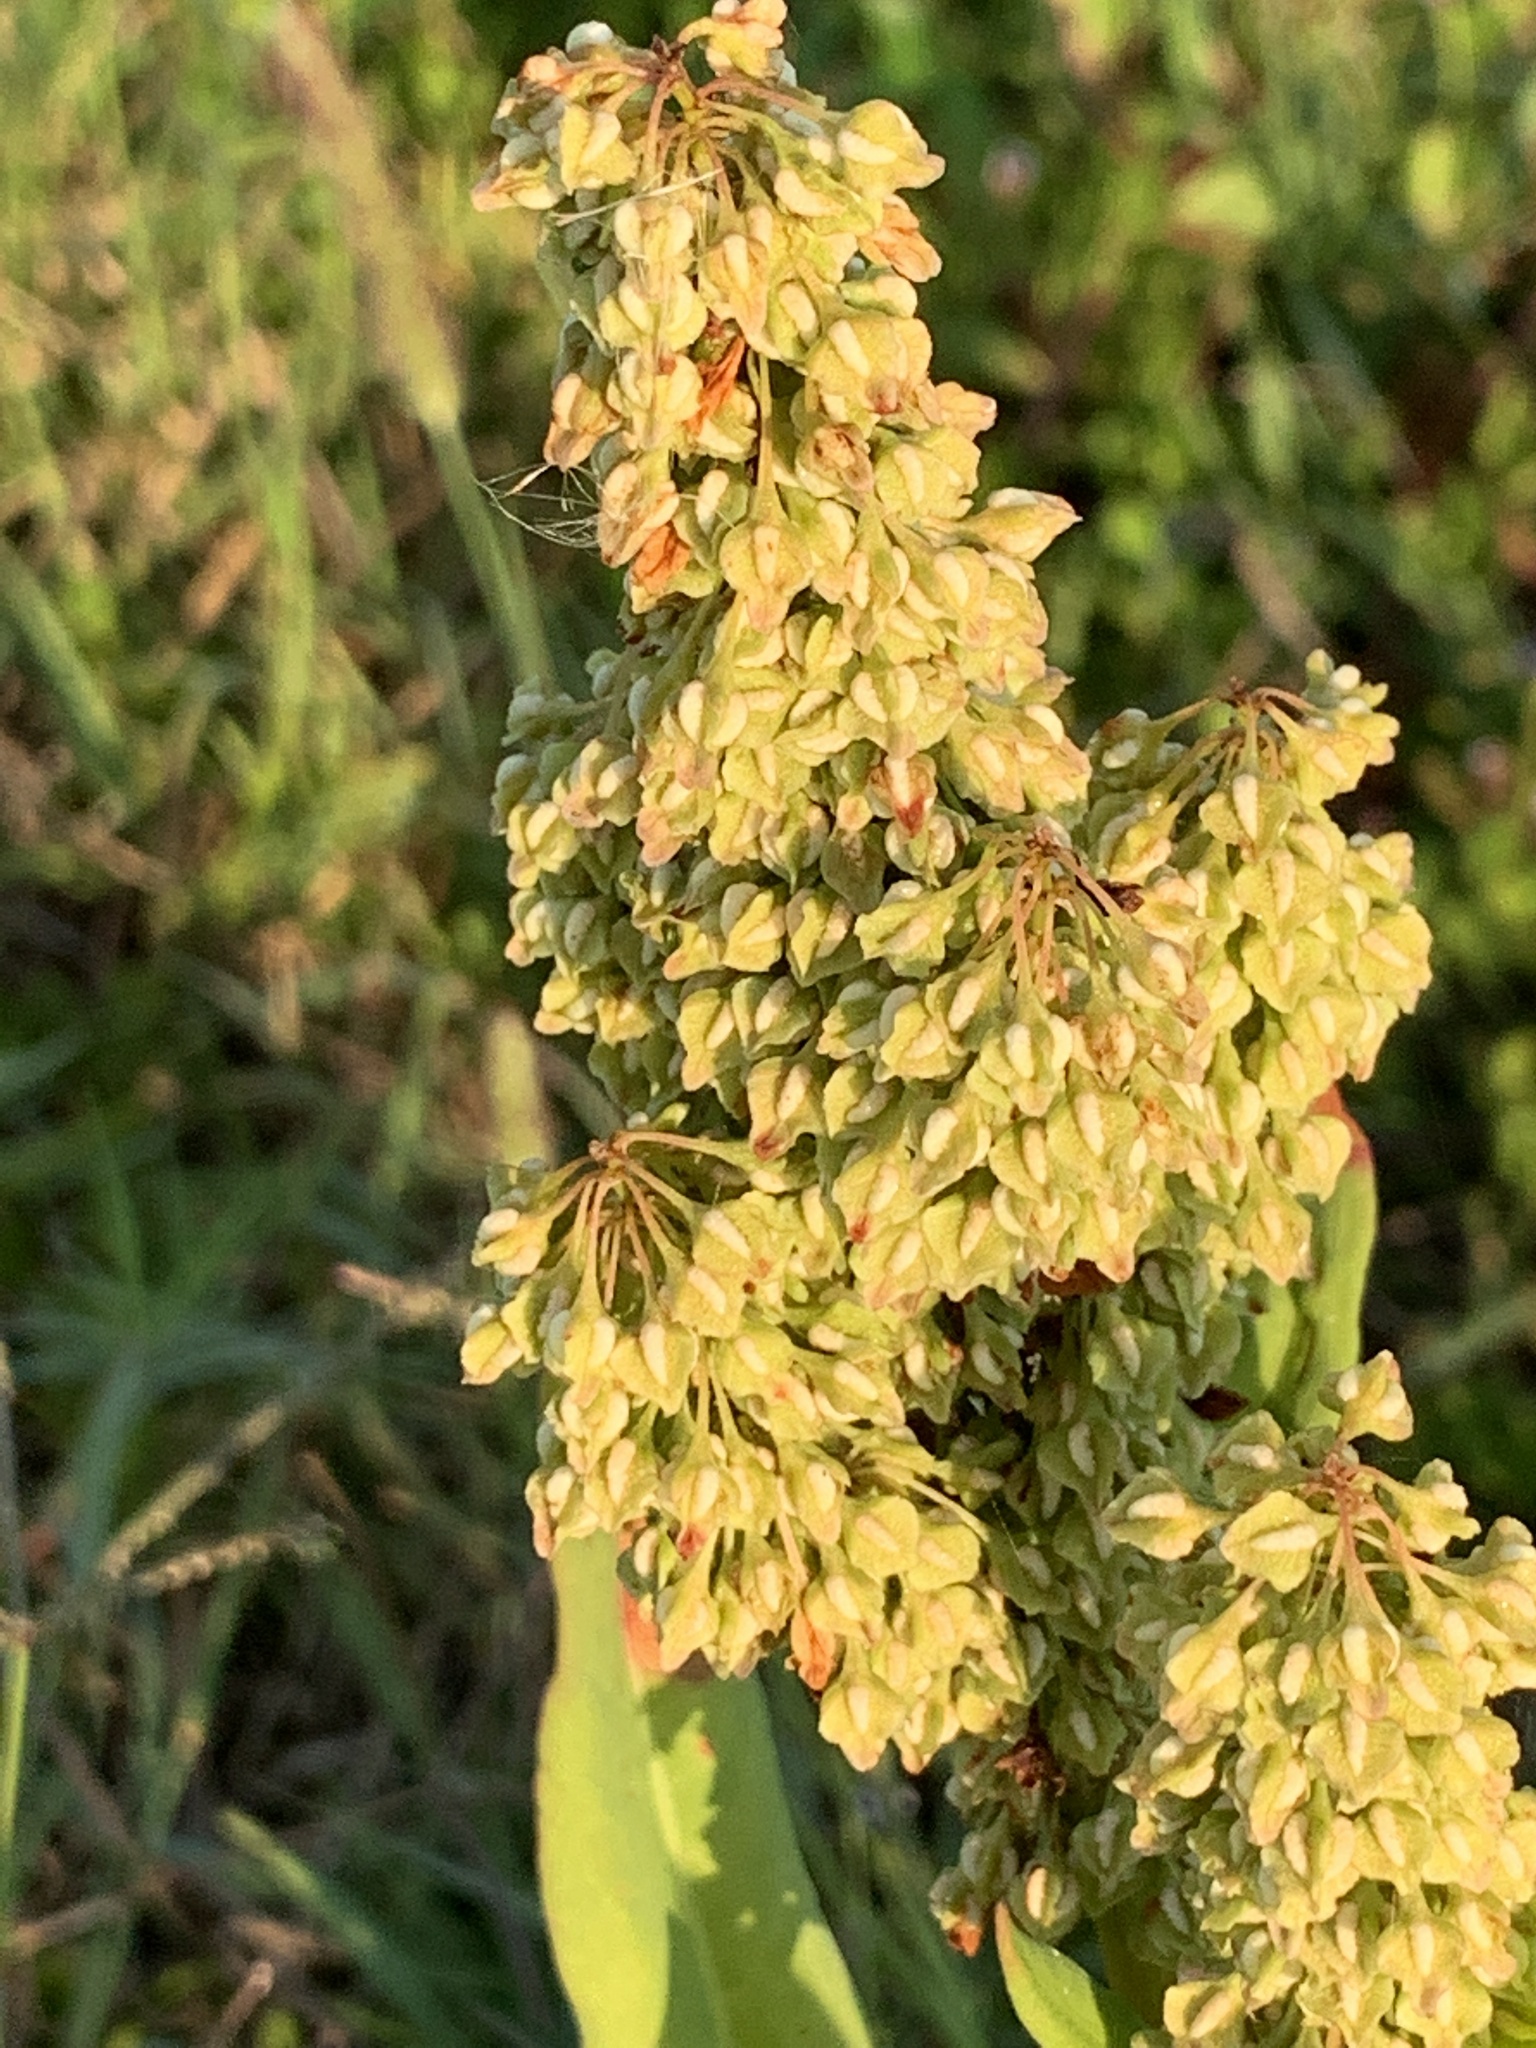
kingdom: Plantae
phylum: Tracheophyta
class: Magnoliopsida
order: Caryophyllales
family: Polygonaceae
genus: Rumex
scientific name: Rumex verticillatus
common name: Swamp dock
